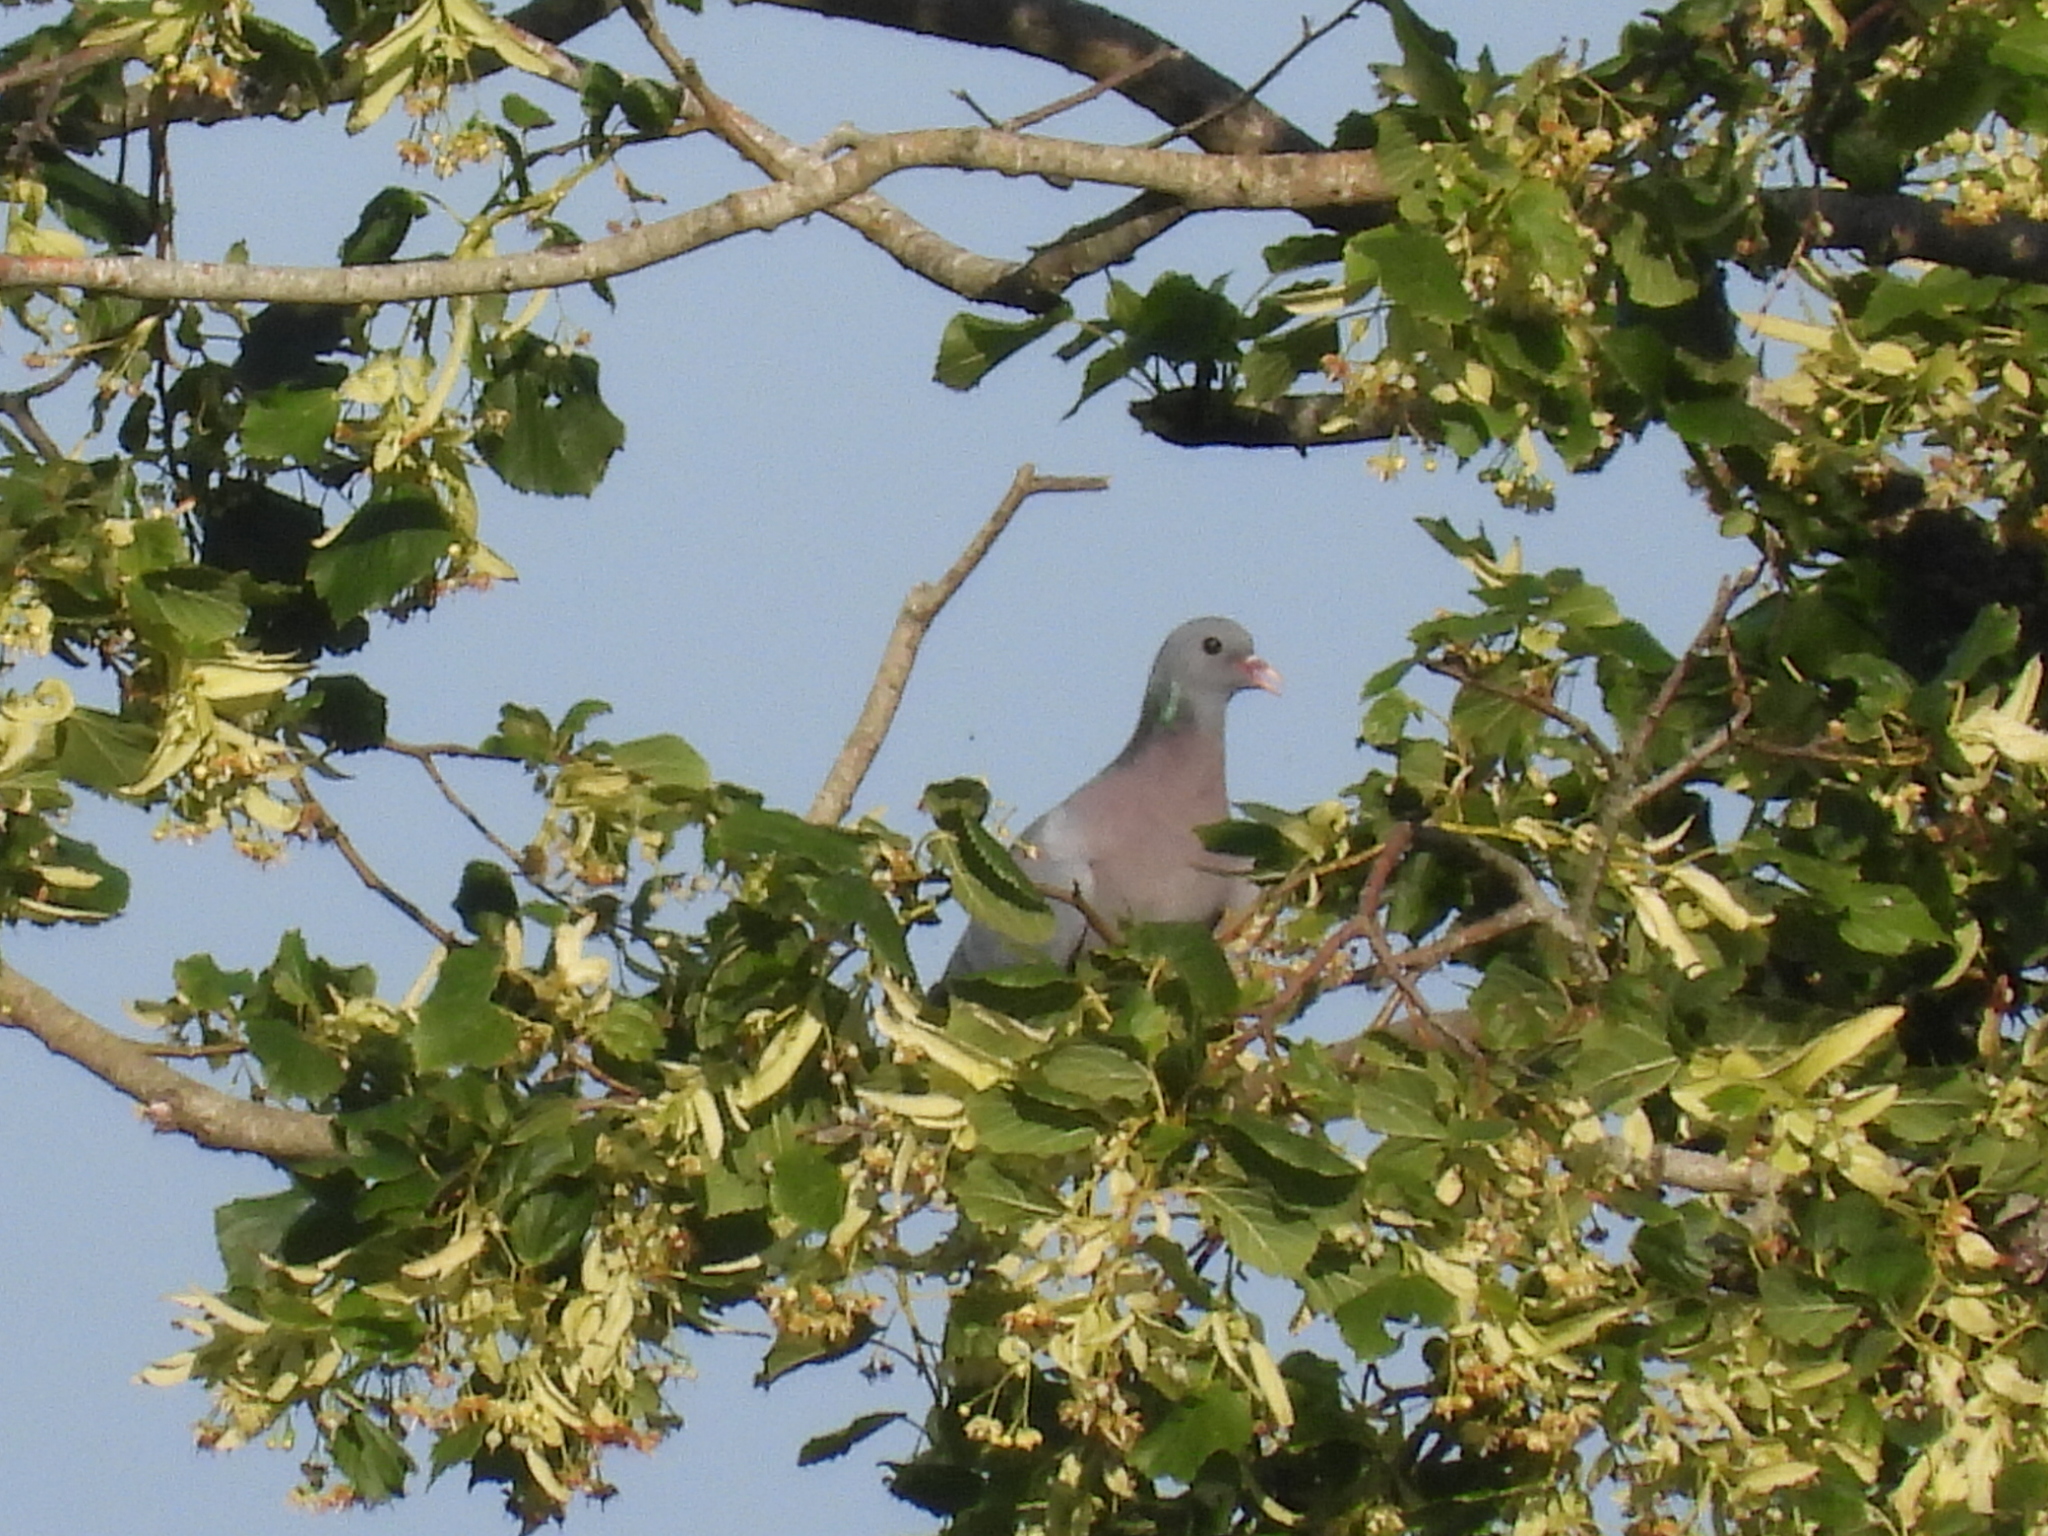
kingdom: Animalia
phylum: Chordata
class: Aves
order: Columbiformes
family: Columbidae
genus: Columba
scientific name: Columba oenas
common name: Stock dove
